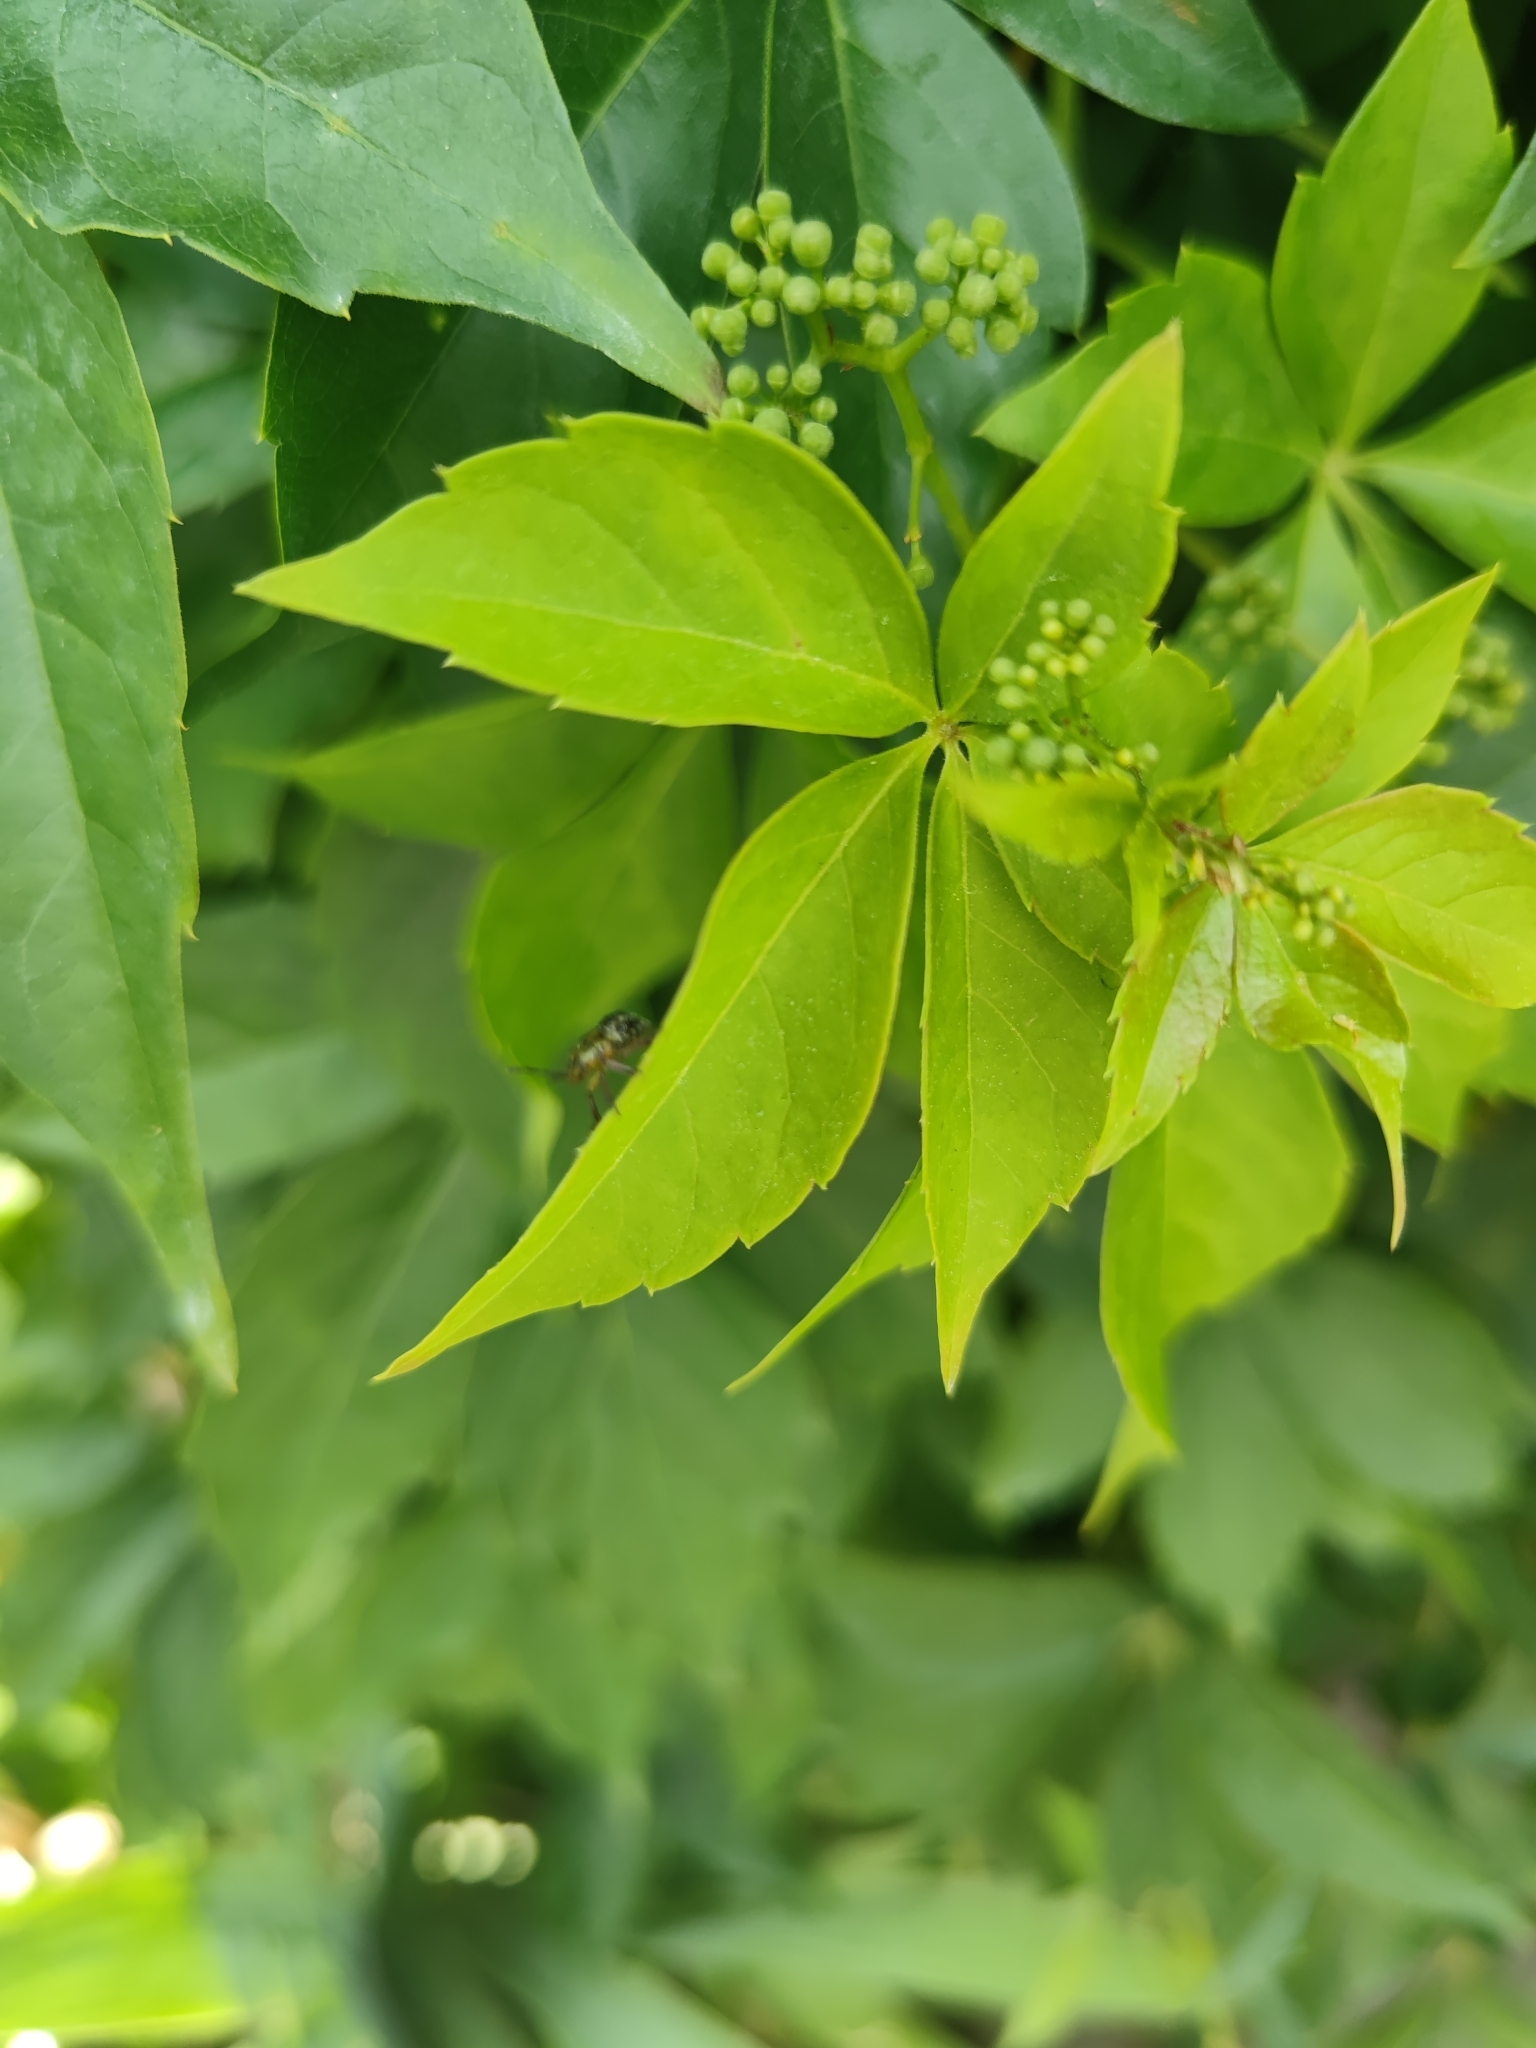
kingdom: Animalia
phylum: Arthropoda
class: Insecta
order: Hemiptera
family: Pentatomidae
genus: Nezara
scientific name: Nezara viridula
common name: Southern green stink bug
